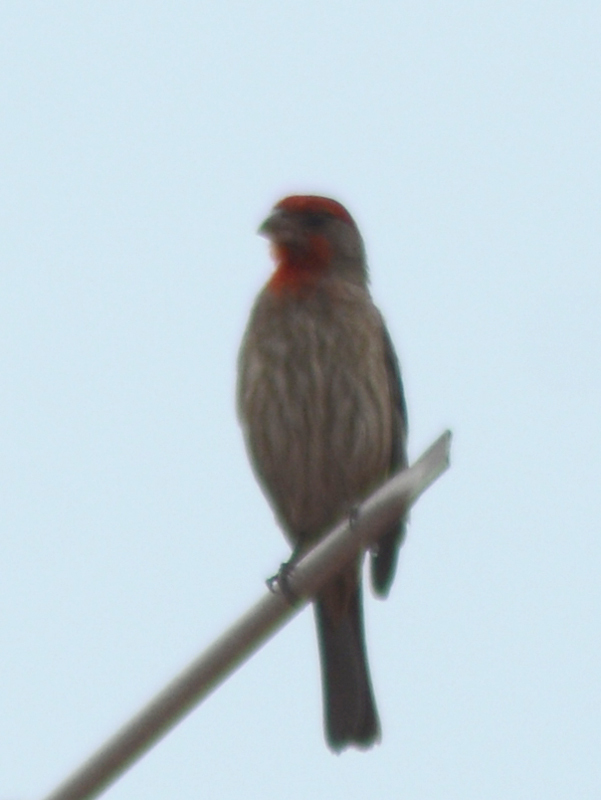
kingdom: Animalia
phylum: Chordata
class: Aves
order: Passeriformes
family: Fringillidae
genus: Haemorhous
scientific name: Haemorhous mexicanus
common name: House finch
